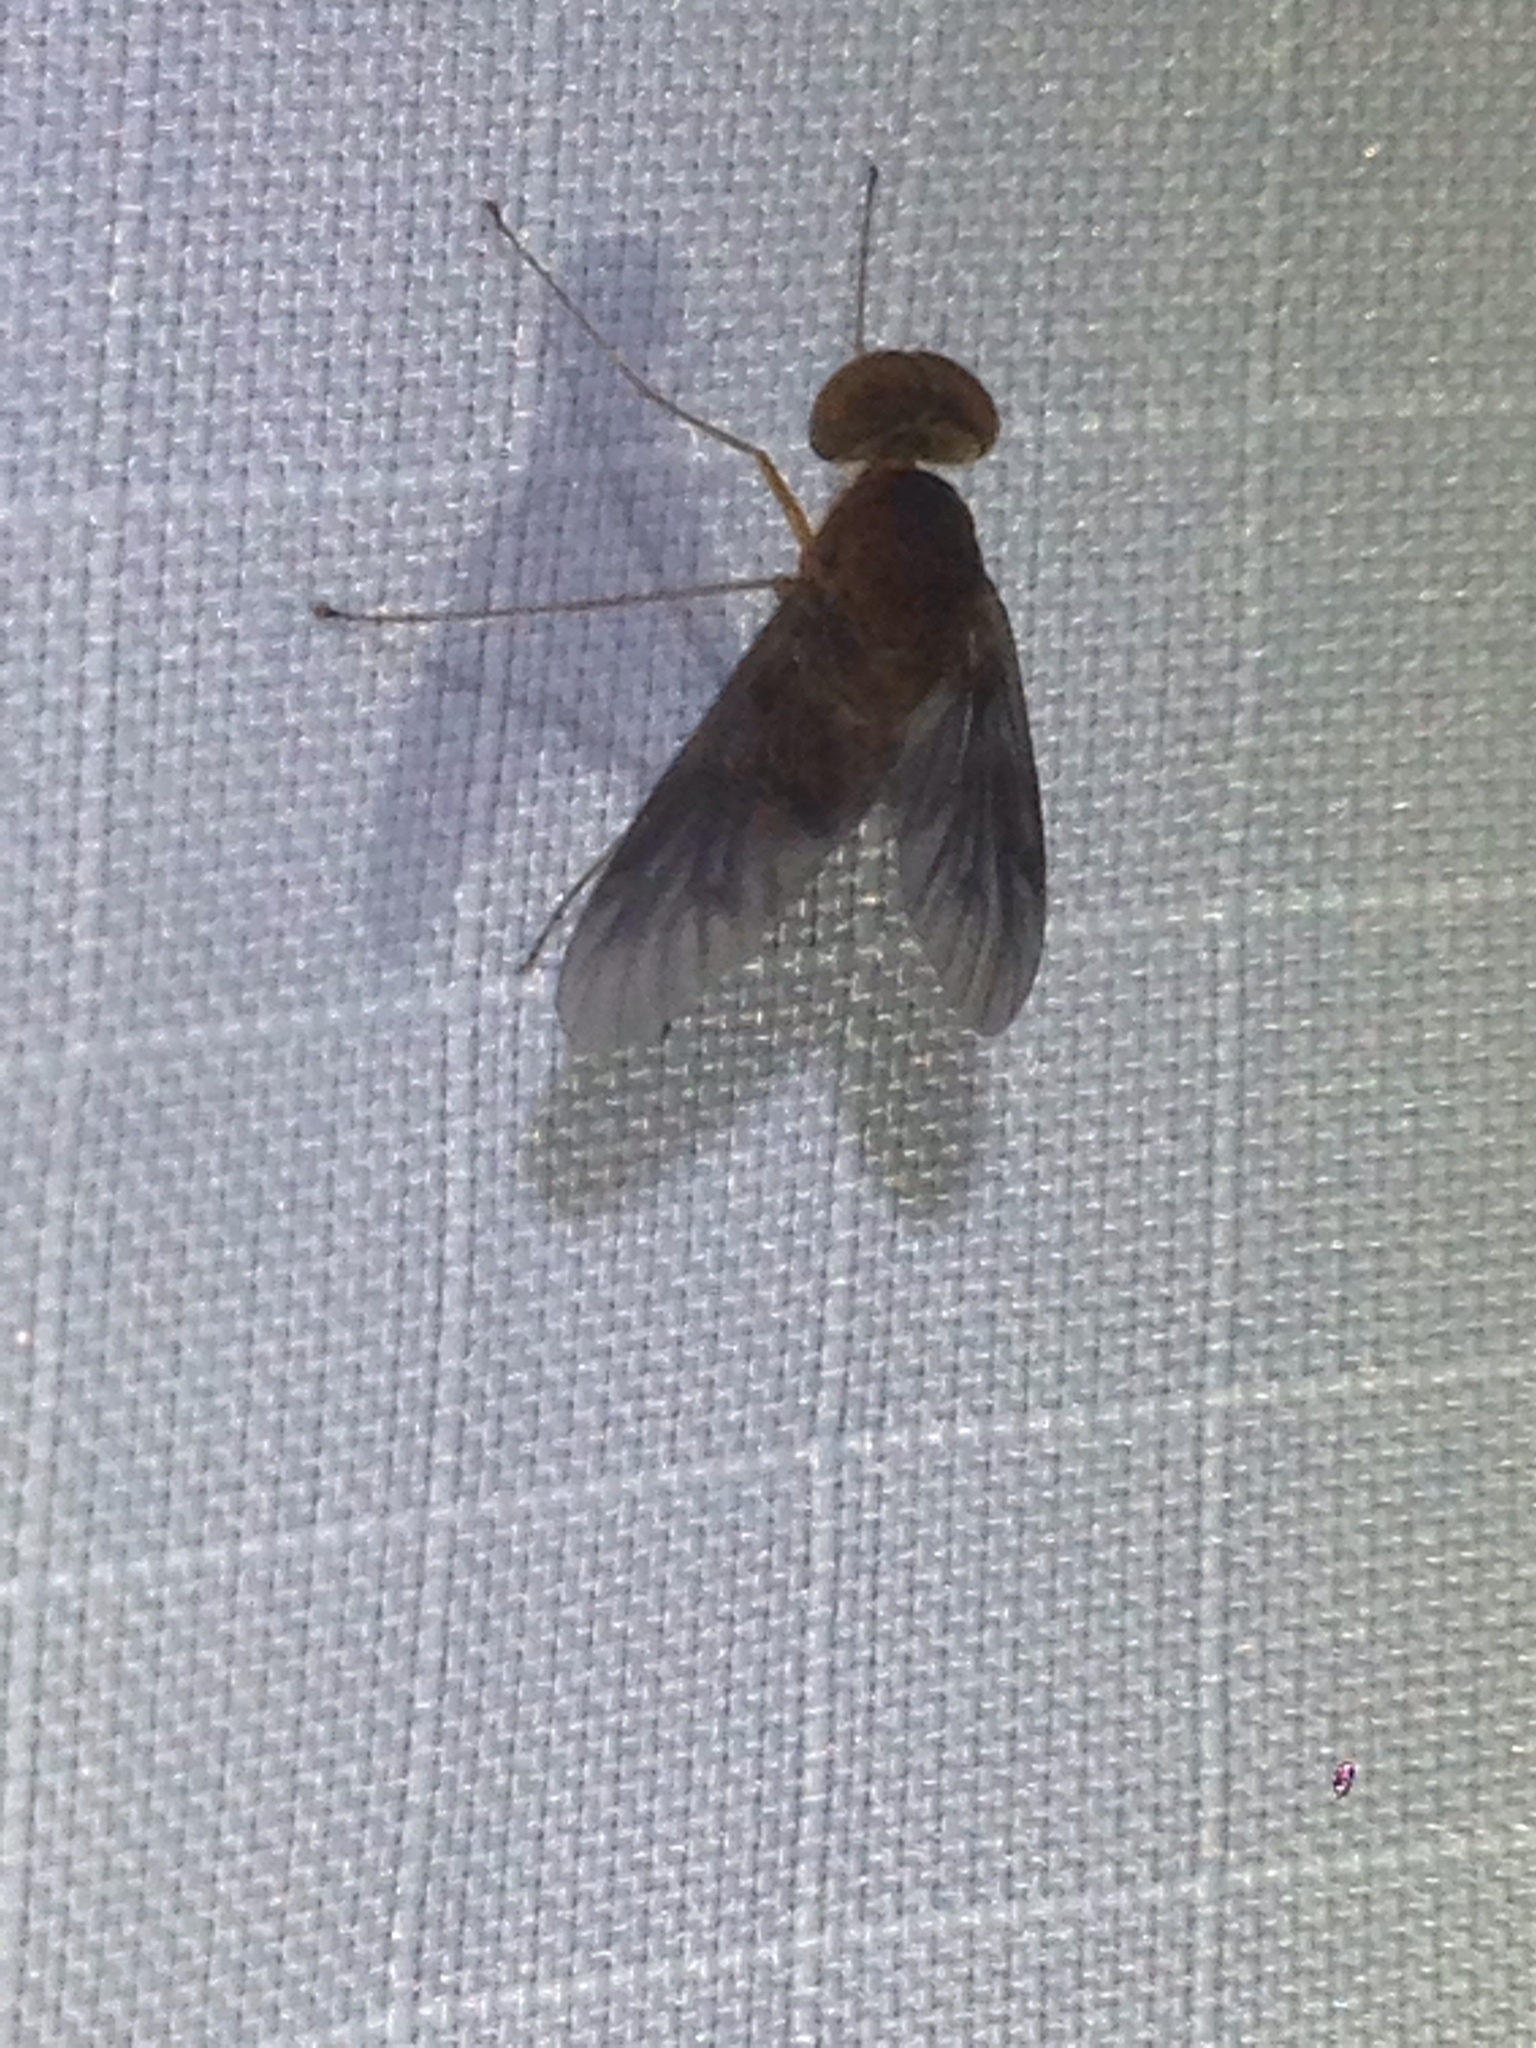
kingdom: Animalia
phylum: Arthropoda
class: Insecta
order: Diptera
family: Rhagionidae
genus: Chrysopilus
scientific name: Chrysopilus quadratus
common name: Quadrate snipe fly
